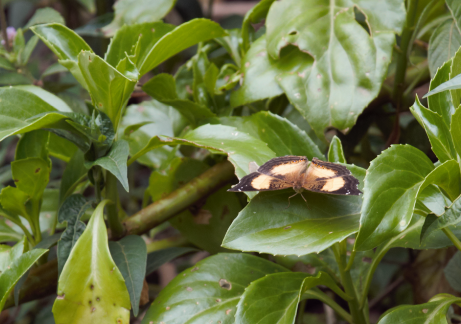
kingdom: Animalia
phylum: Arthropoda
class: Insecta
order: Lepidoptera
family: Nymphalidae
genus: Junonia
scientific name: Junonia terea
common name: Soldier pansy
